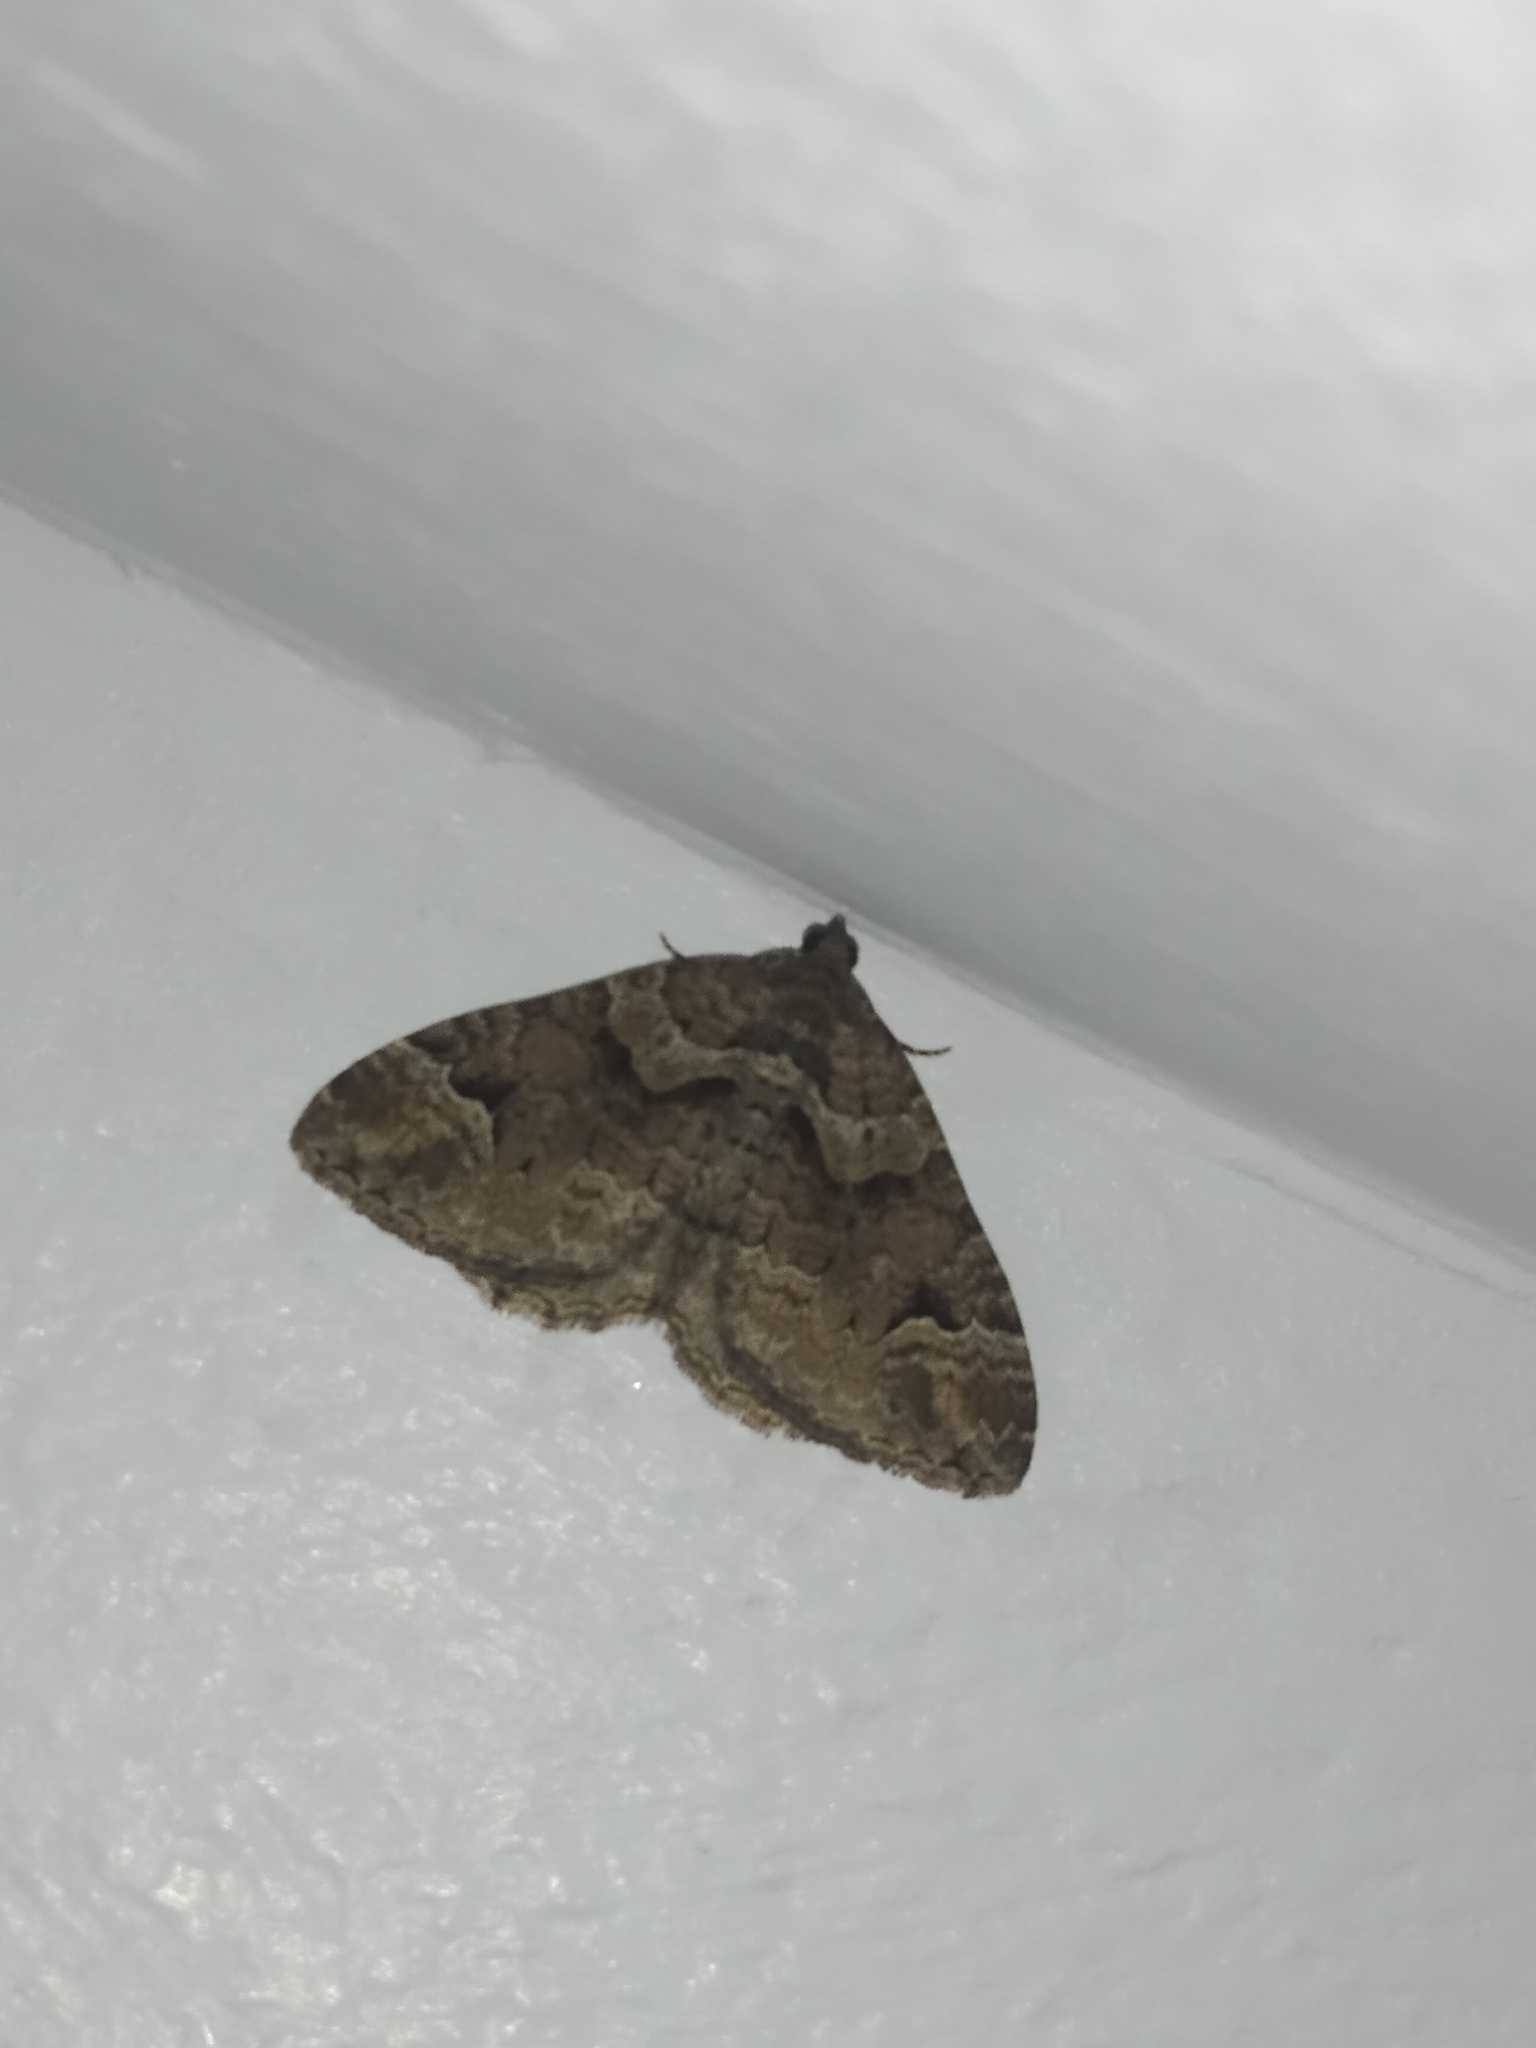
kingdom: Animalia
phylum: Arthropoda
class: Insecta
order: Lepidoptera
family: Geometridae
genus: Catarhoe
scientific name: Catarhoe basochesiata
